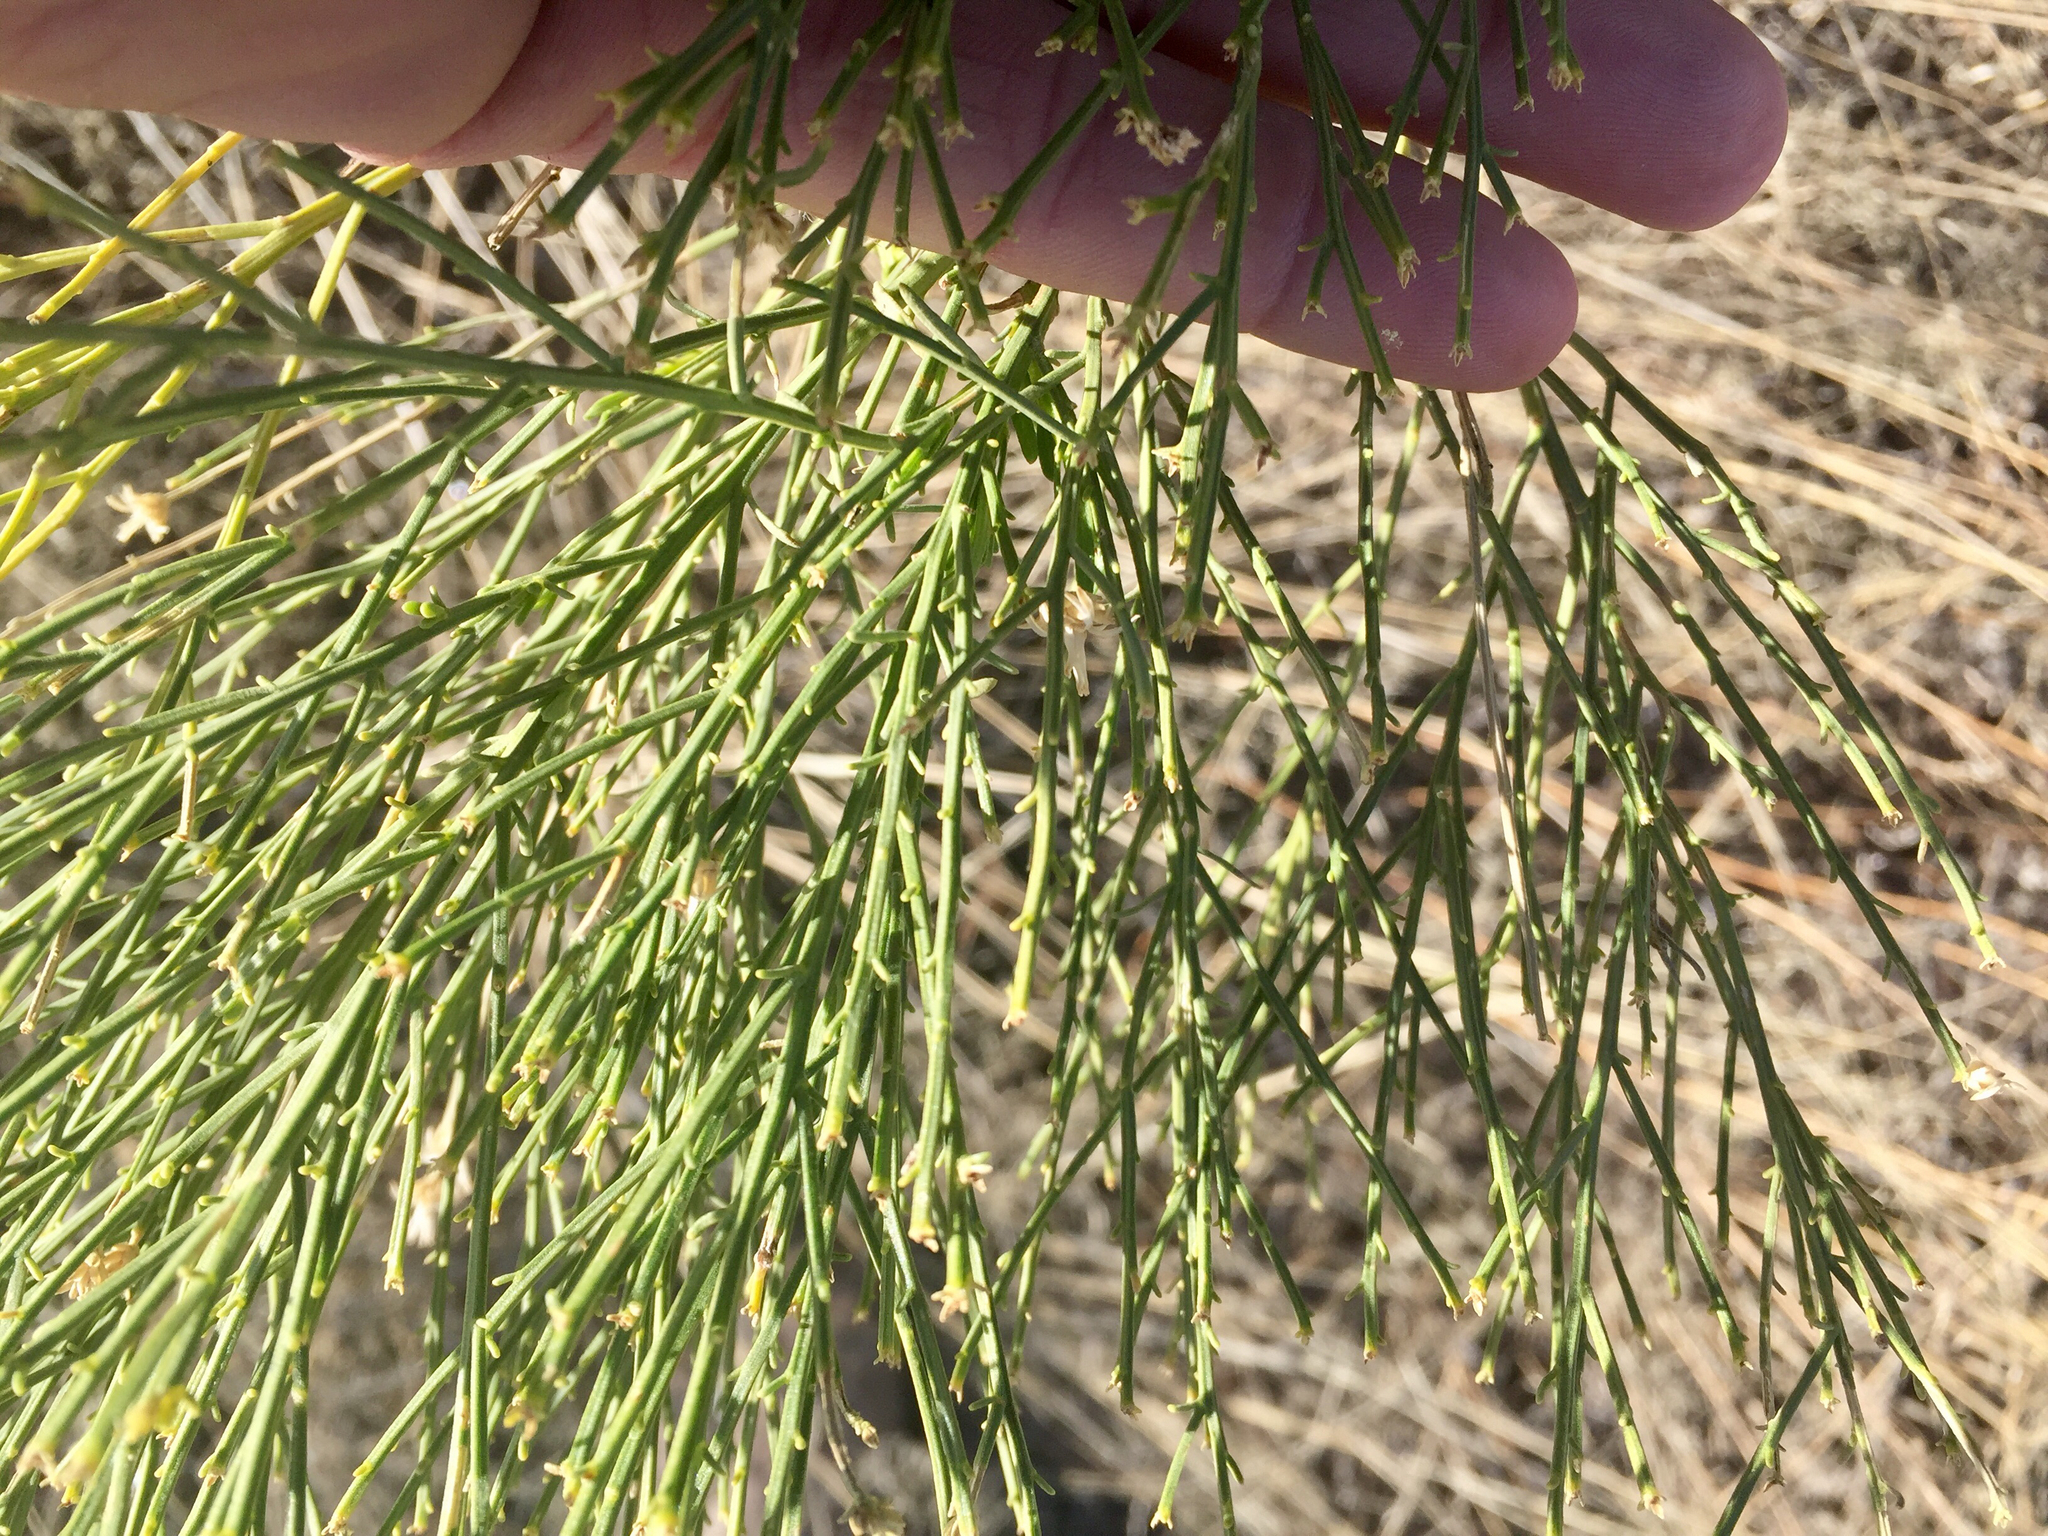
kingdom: Plantae
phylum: Tracheophyta
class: Magnoliopsida
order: Asterales
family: Asteraceae
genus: Baccharis
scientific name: Baccharis sarothroides
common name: Desert-broom
